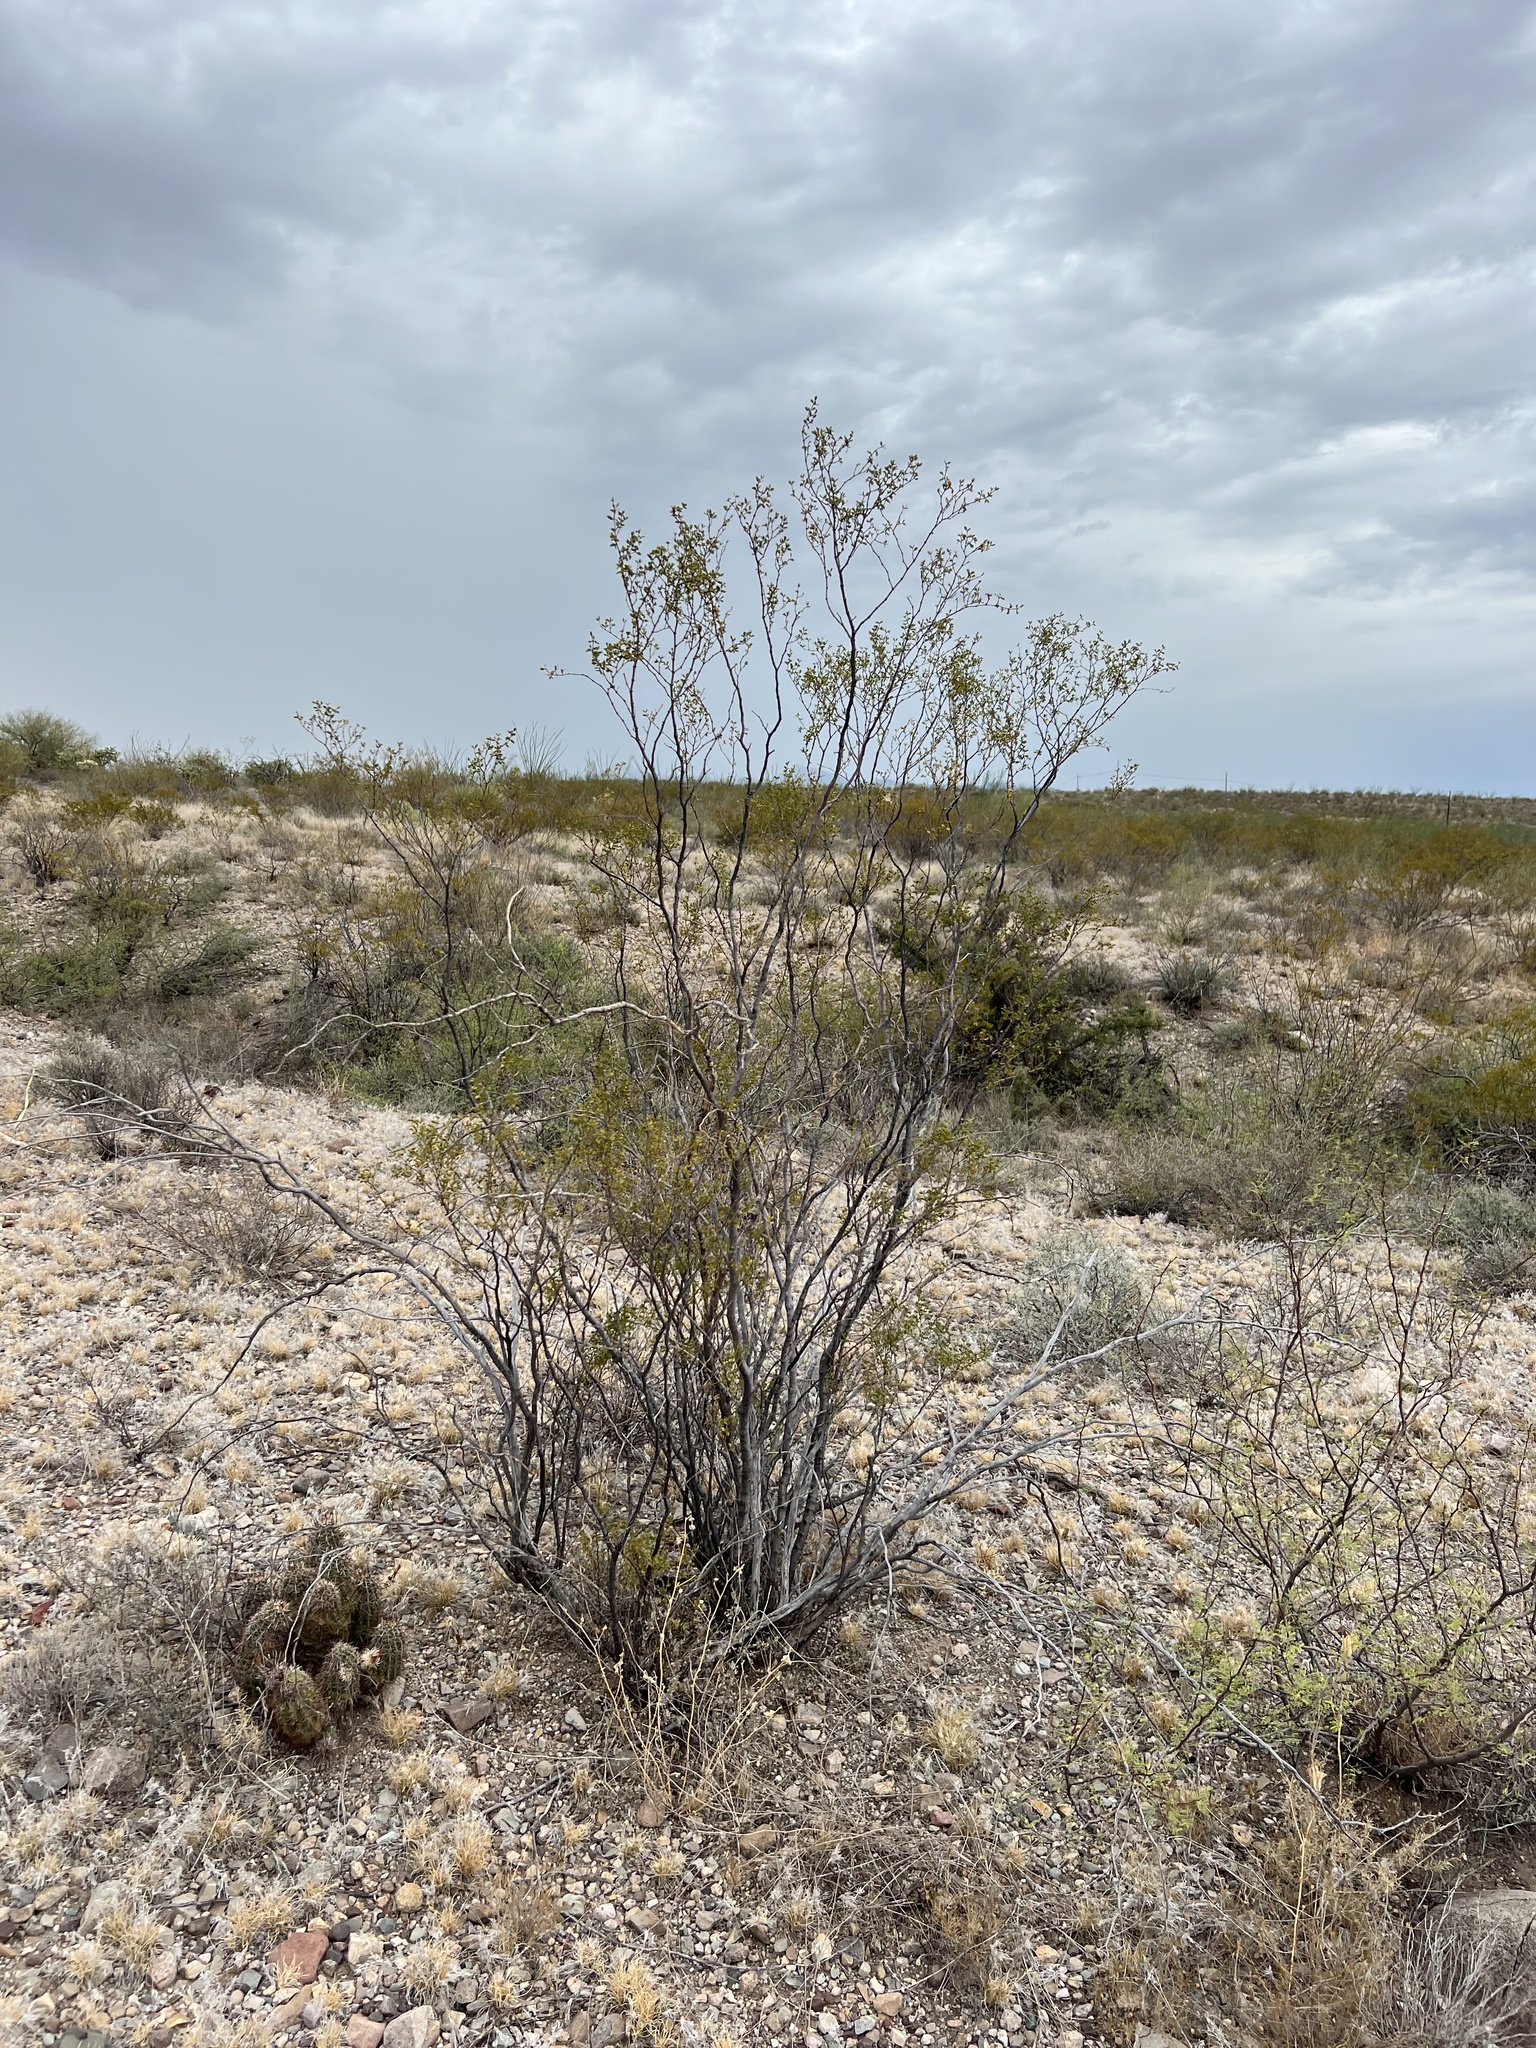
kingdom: Plantae
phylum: Tracheophyta
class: Magnoliopsida
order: Zygophyllales
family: Zygophyllaceae
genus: Larrea
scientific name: Larrea tridentata
